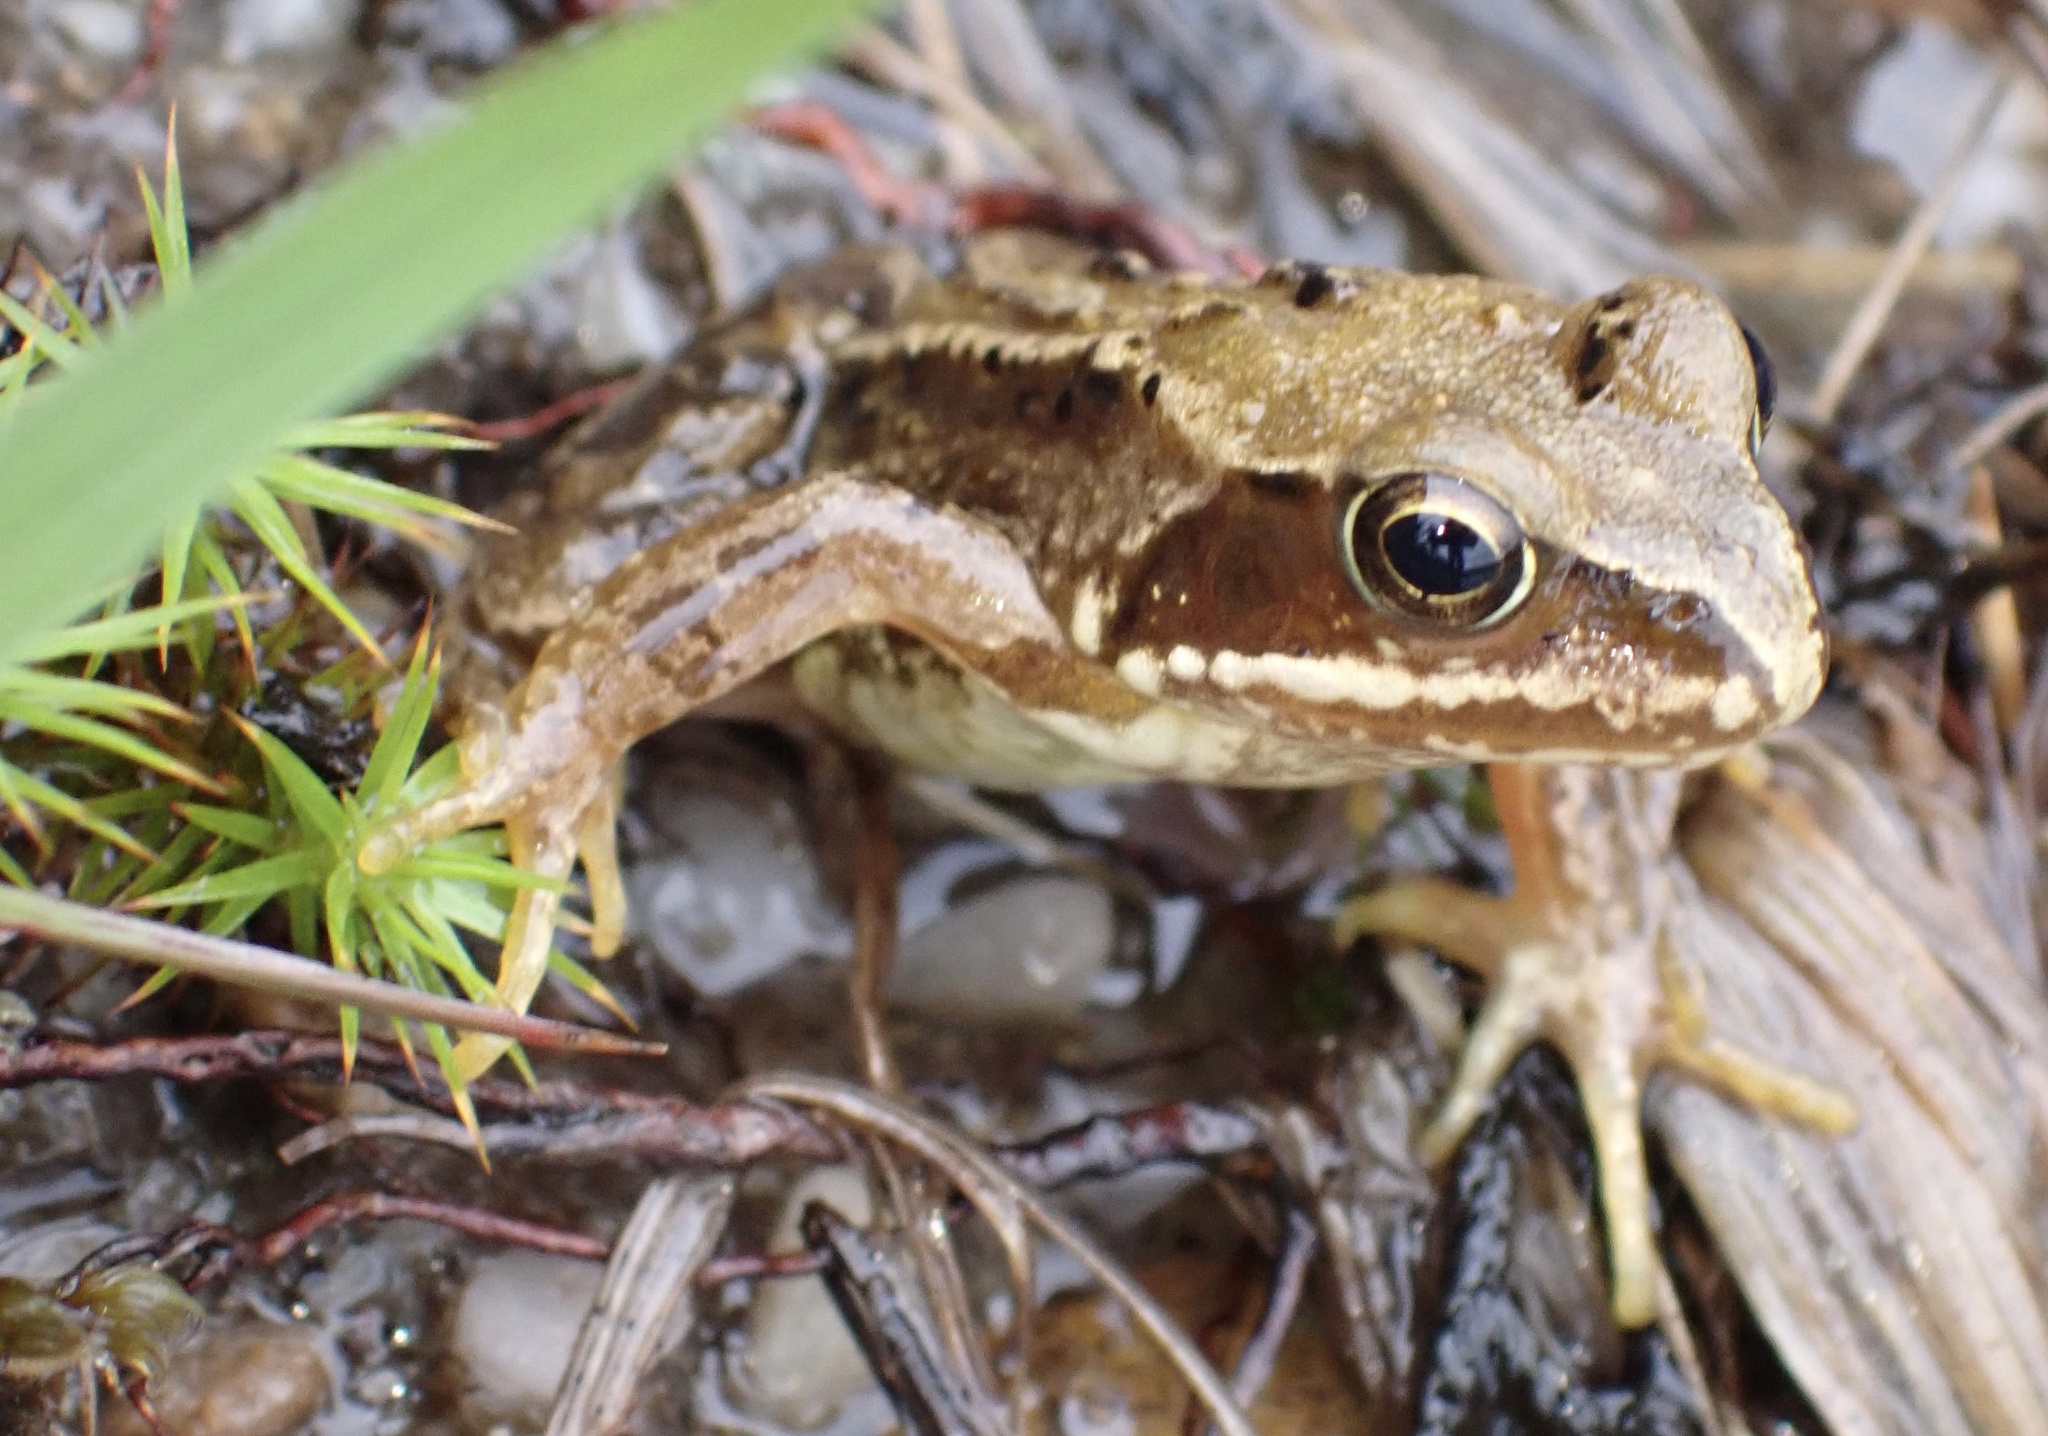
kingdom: Animalia
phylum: Chordata
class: Amphibia
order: Anura
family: Ranidae
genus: Rana
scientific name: Rana temporaria
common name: Common frog
